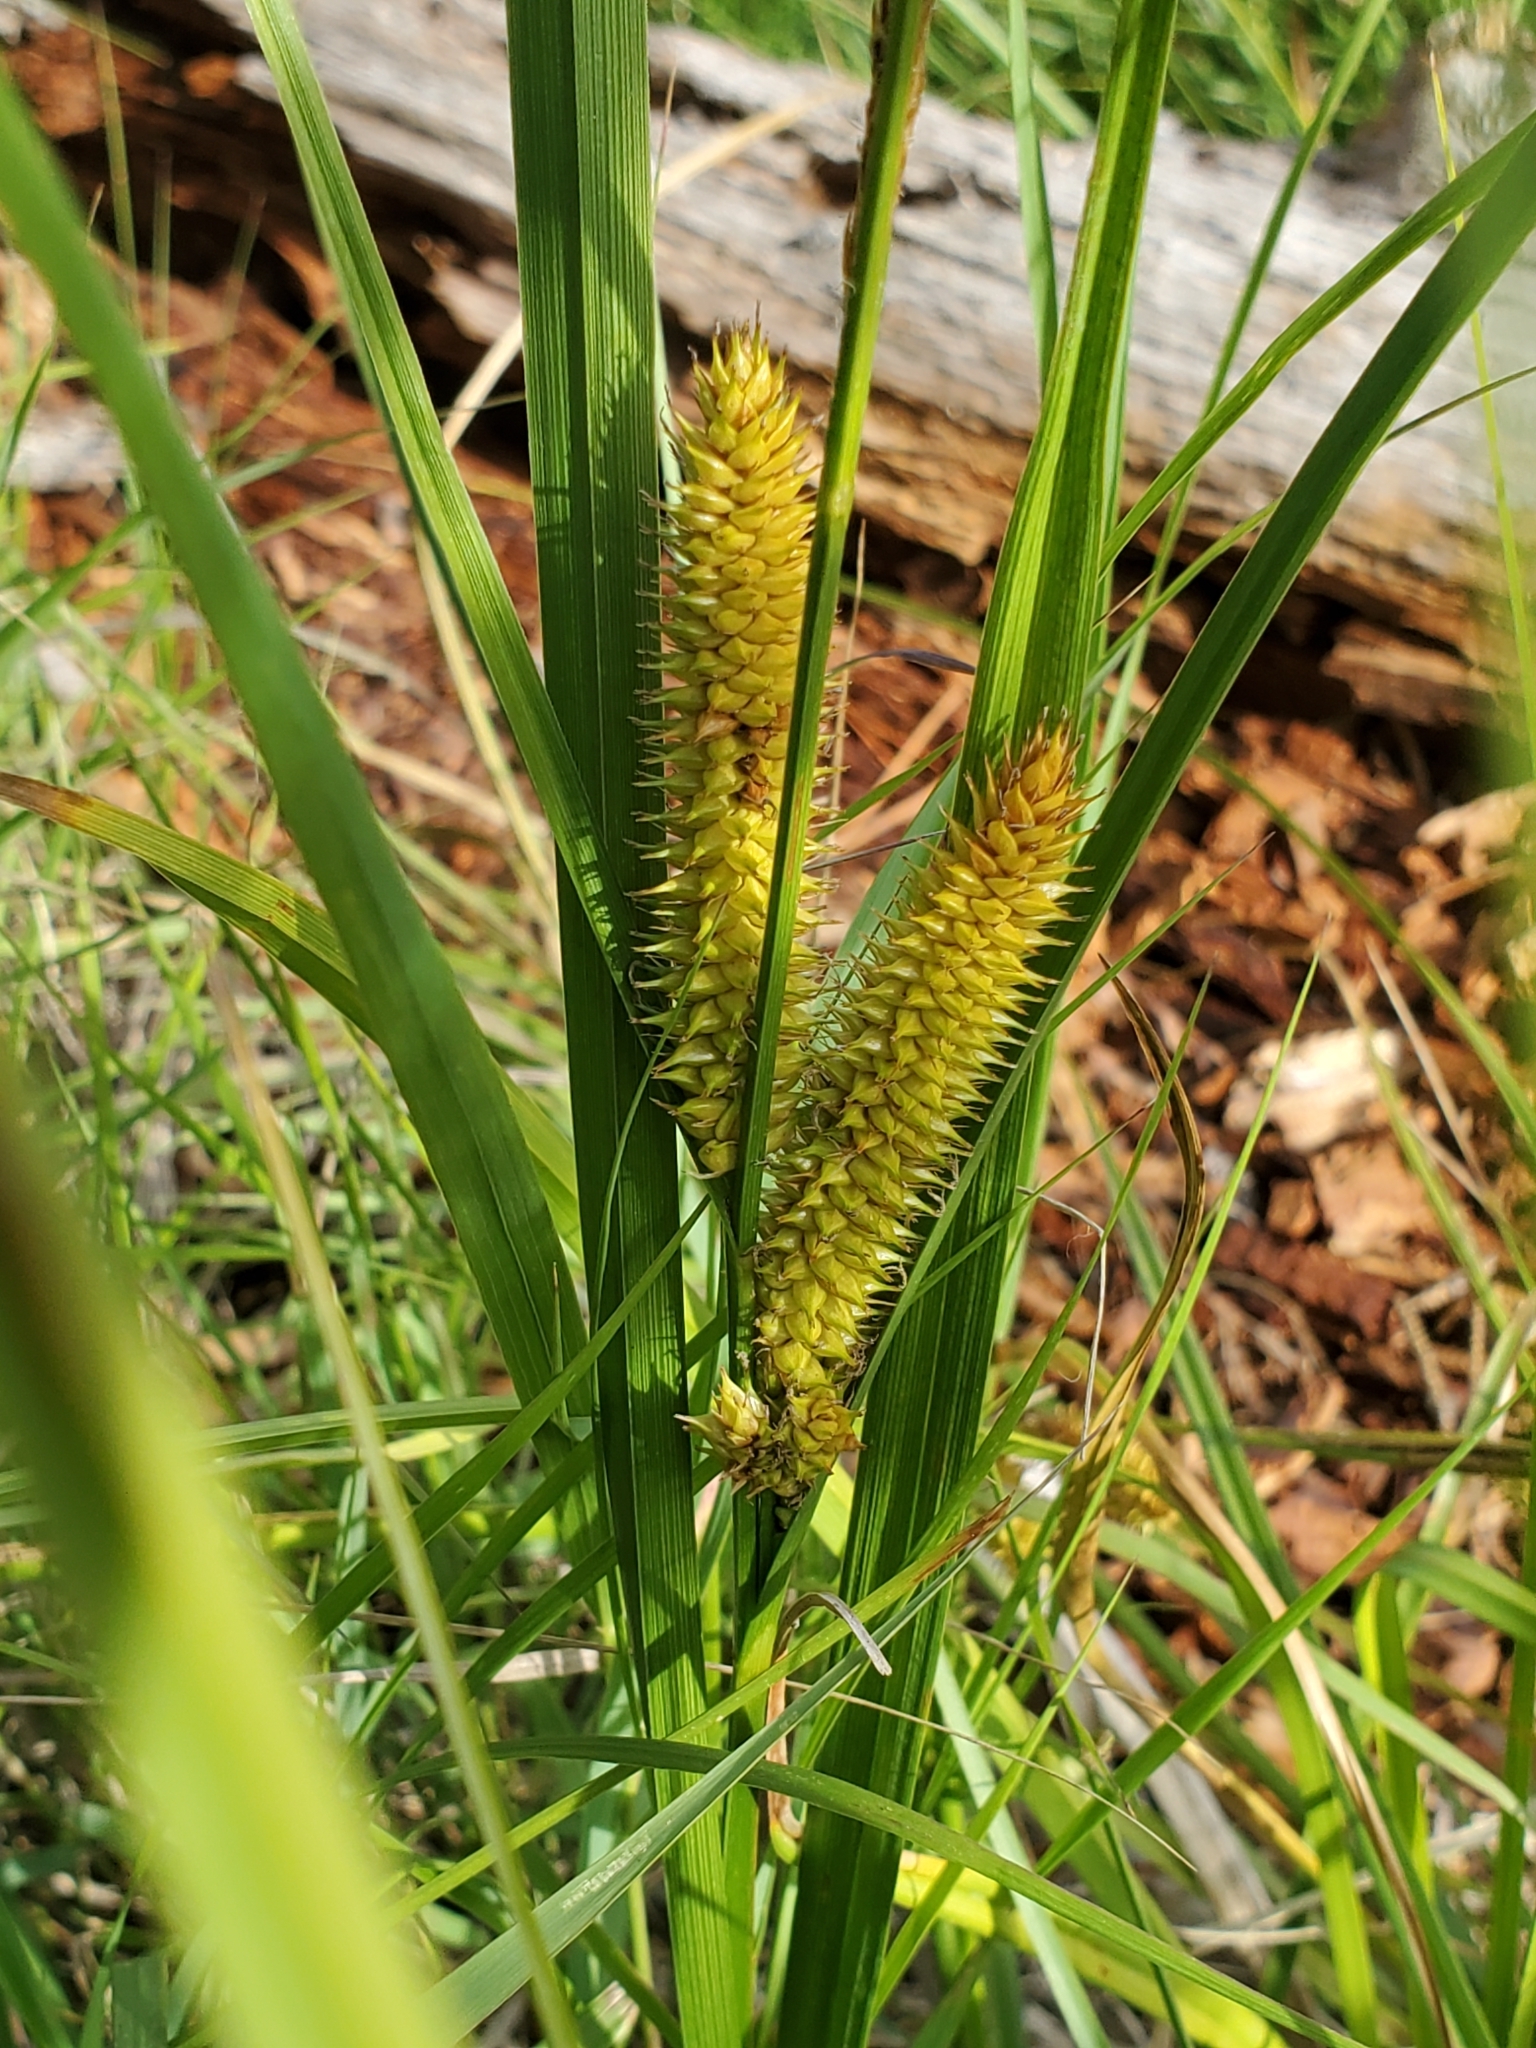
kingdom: Plantae
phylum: Tracheophyta
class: Liliopsida
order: Poales
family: Cyperaceae
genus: Carex
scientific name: Carex utriculata
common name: Beaked sedge
